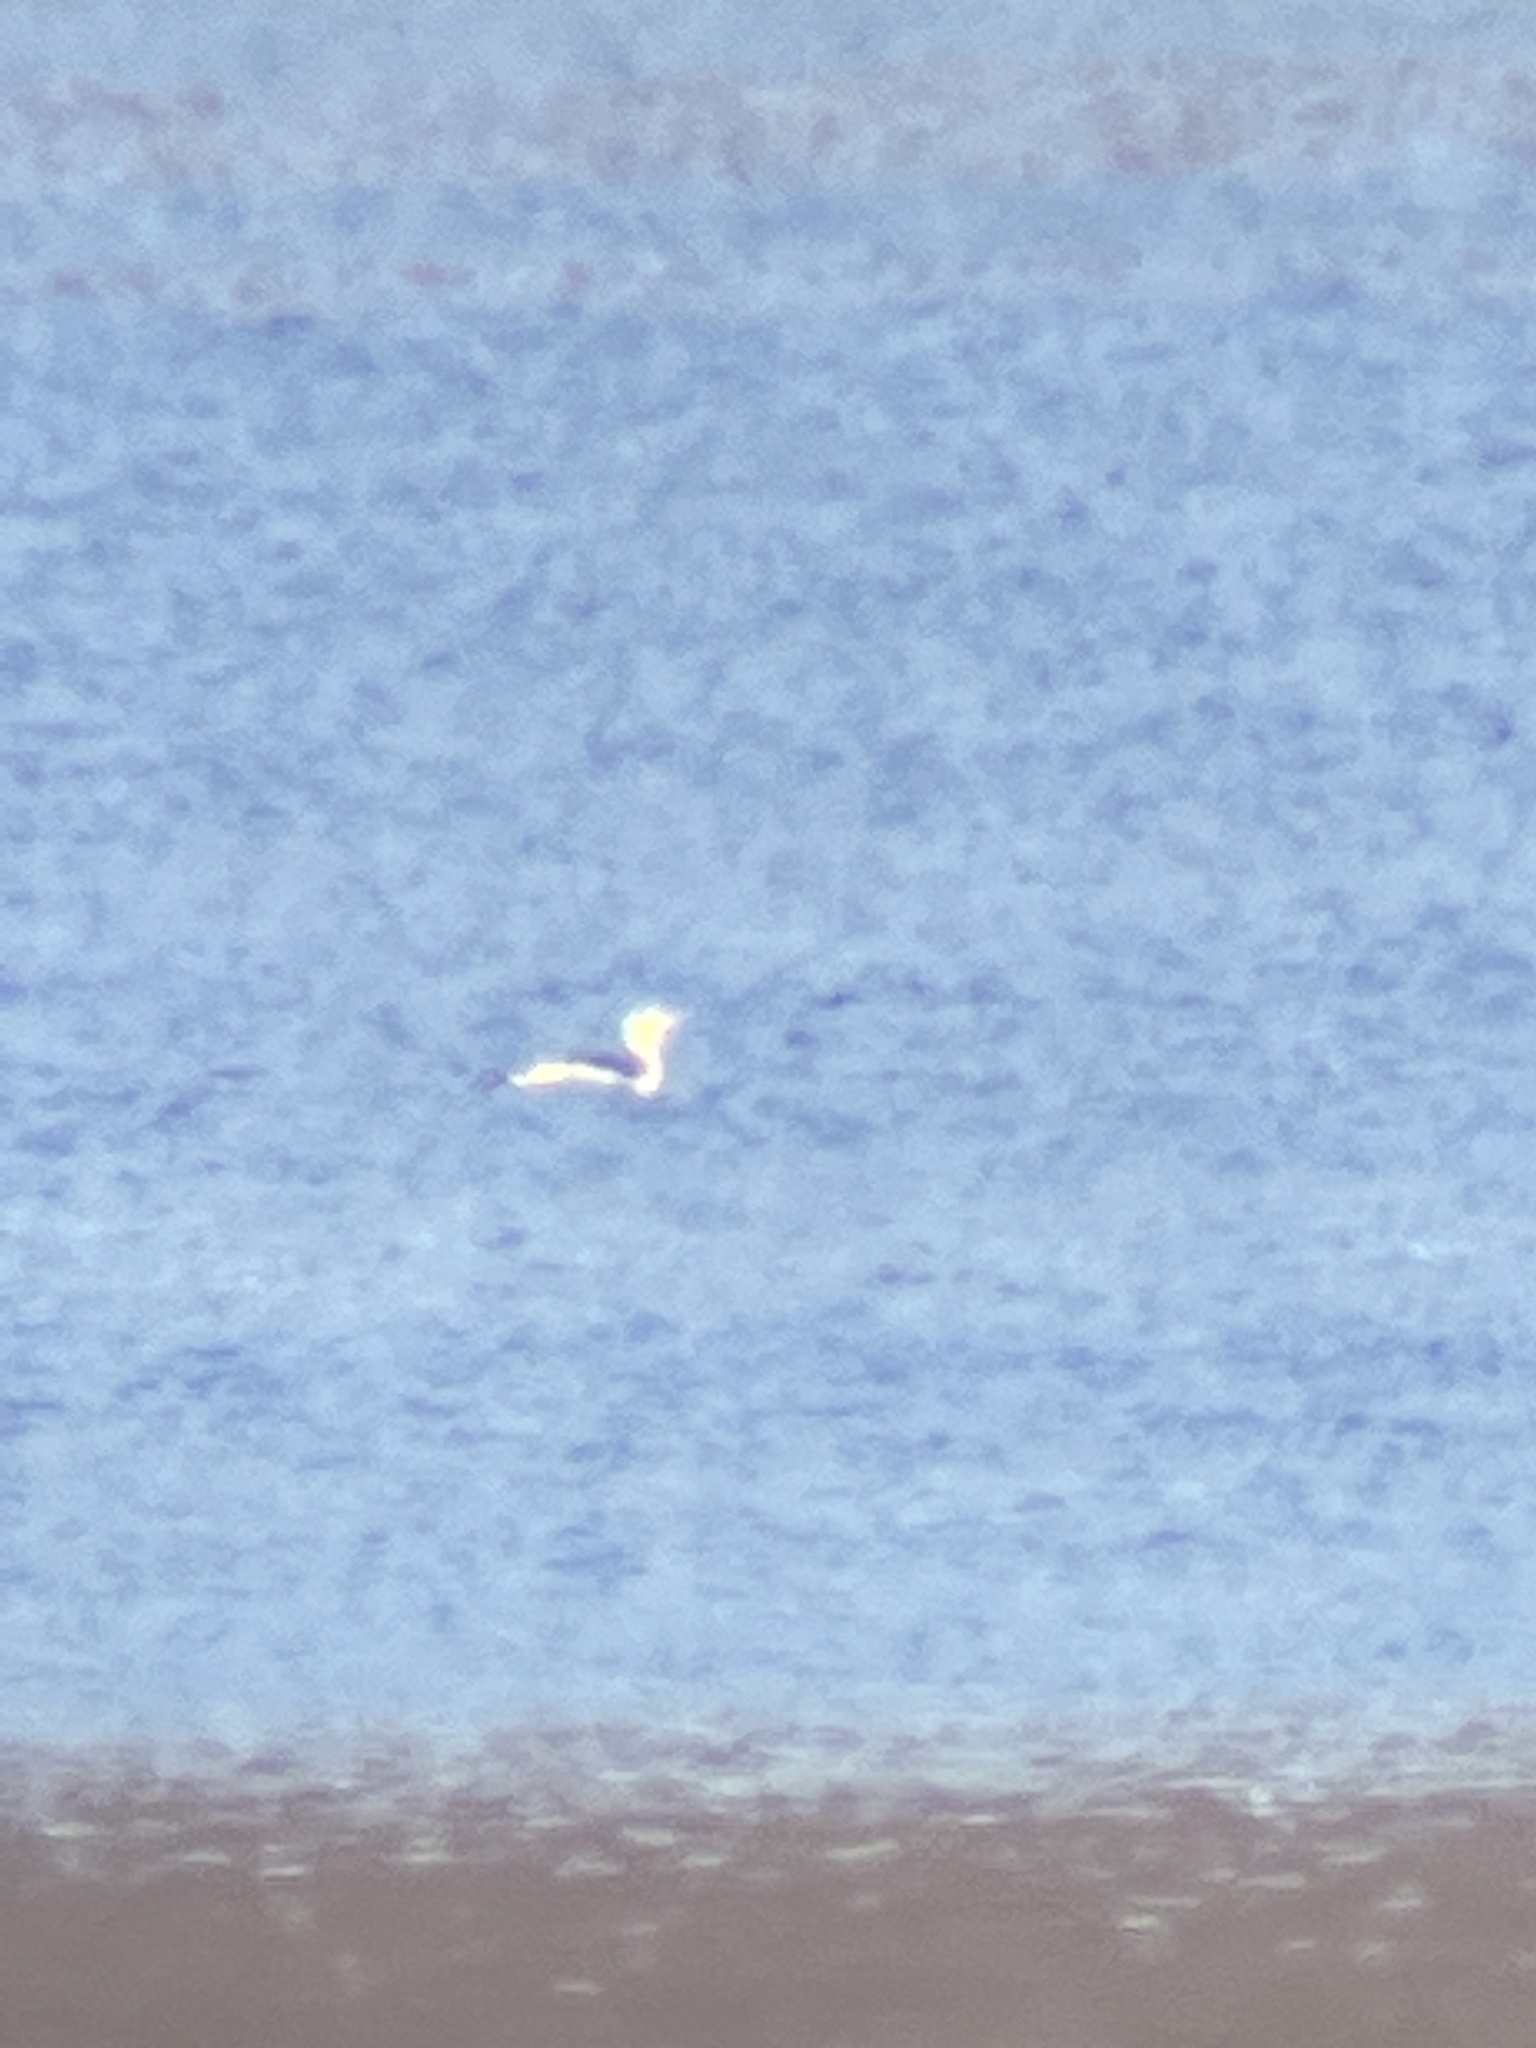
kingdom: Animalia
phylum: Chordata
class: Aves
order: Gaviiformes
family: Gaviidae
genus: Gavia
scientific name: Gavia stellata
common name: Red-throated loon
